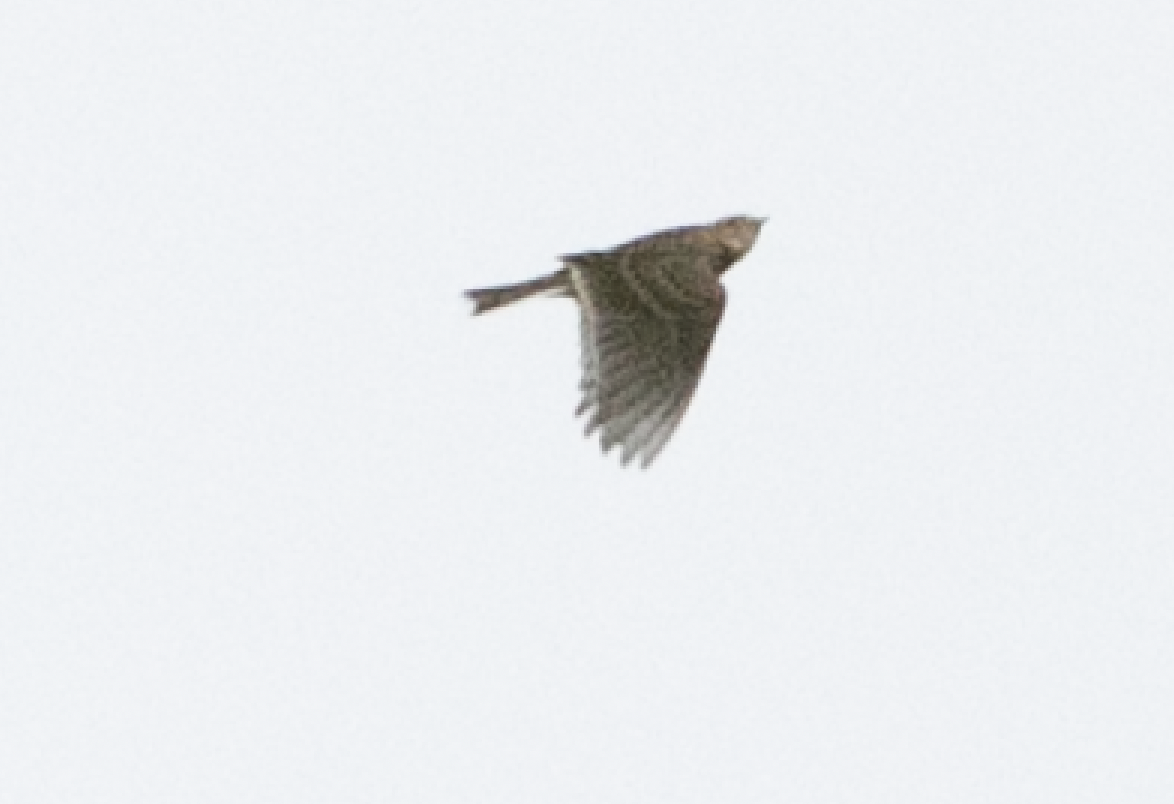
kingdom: Animalia
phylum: Chordata
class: Aves
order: Passeriformes
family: Alaudidae
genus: Alauda
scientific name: Alauda arvensis
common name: Eurasian skylark
